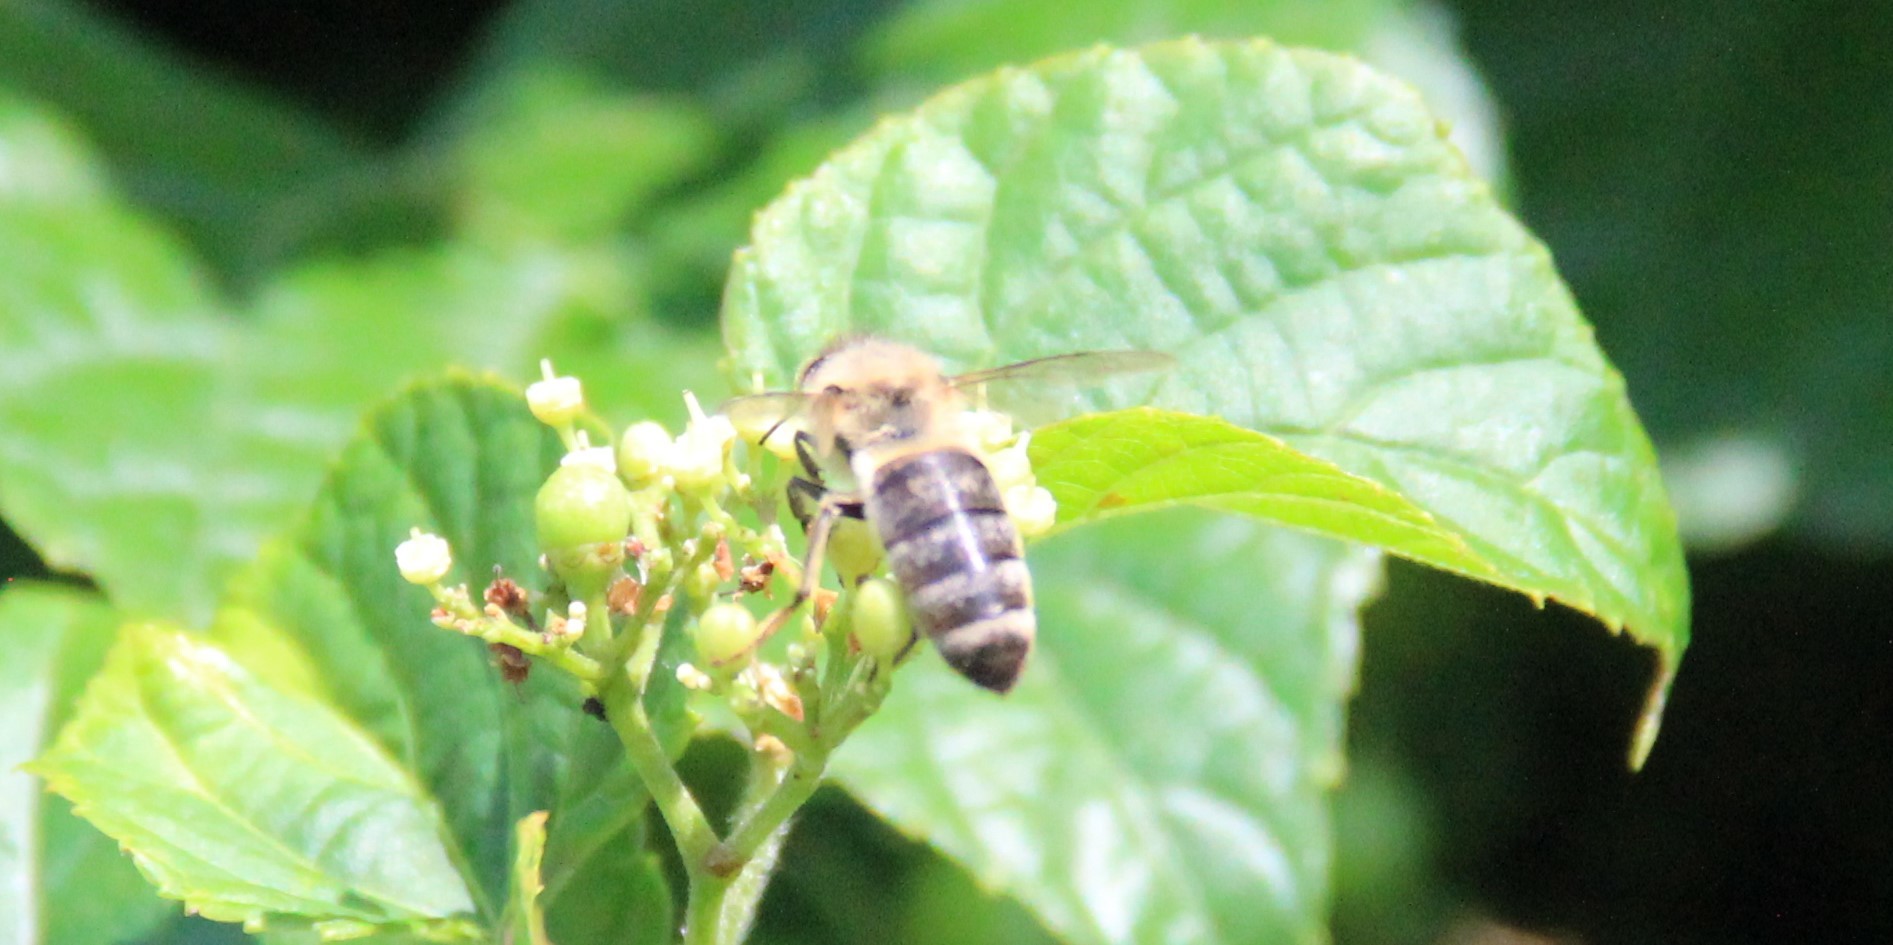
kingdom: Animalia
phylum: Arthropoda
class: Insecta
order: Hymenoptera
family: Apidae
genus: Apis
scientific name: Apis mellifera
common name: Honey bee
